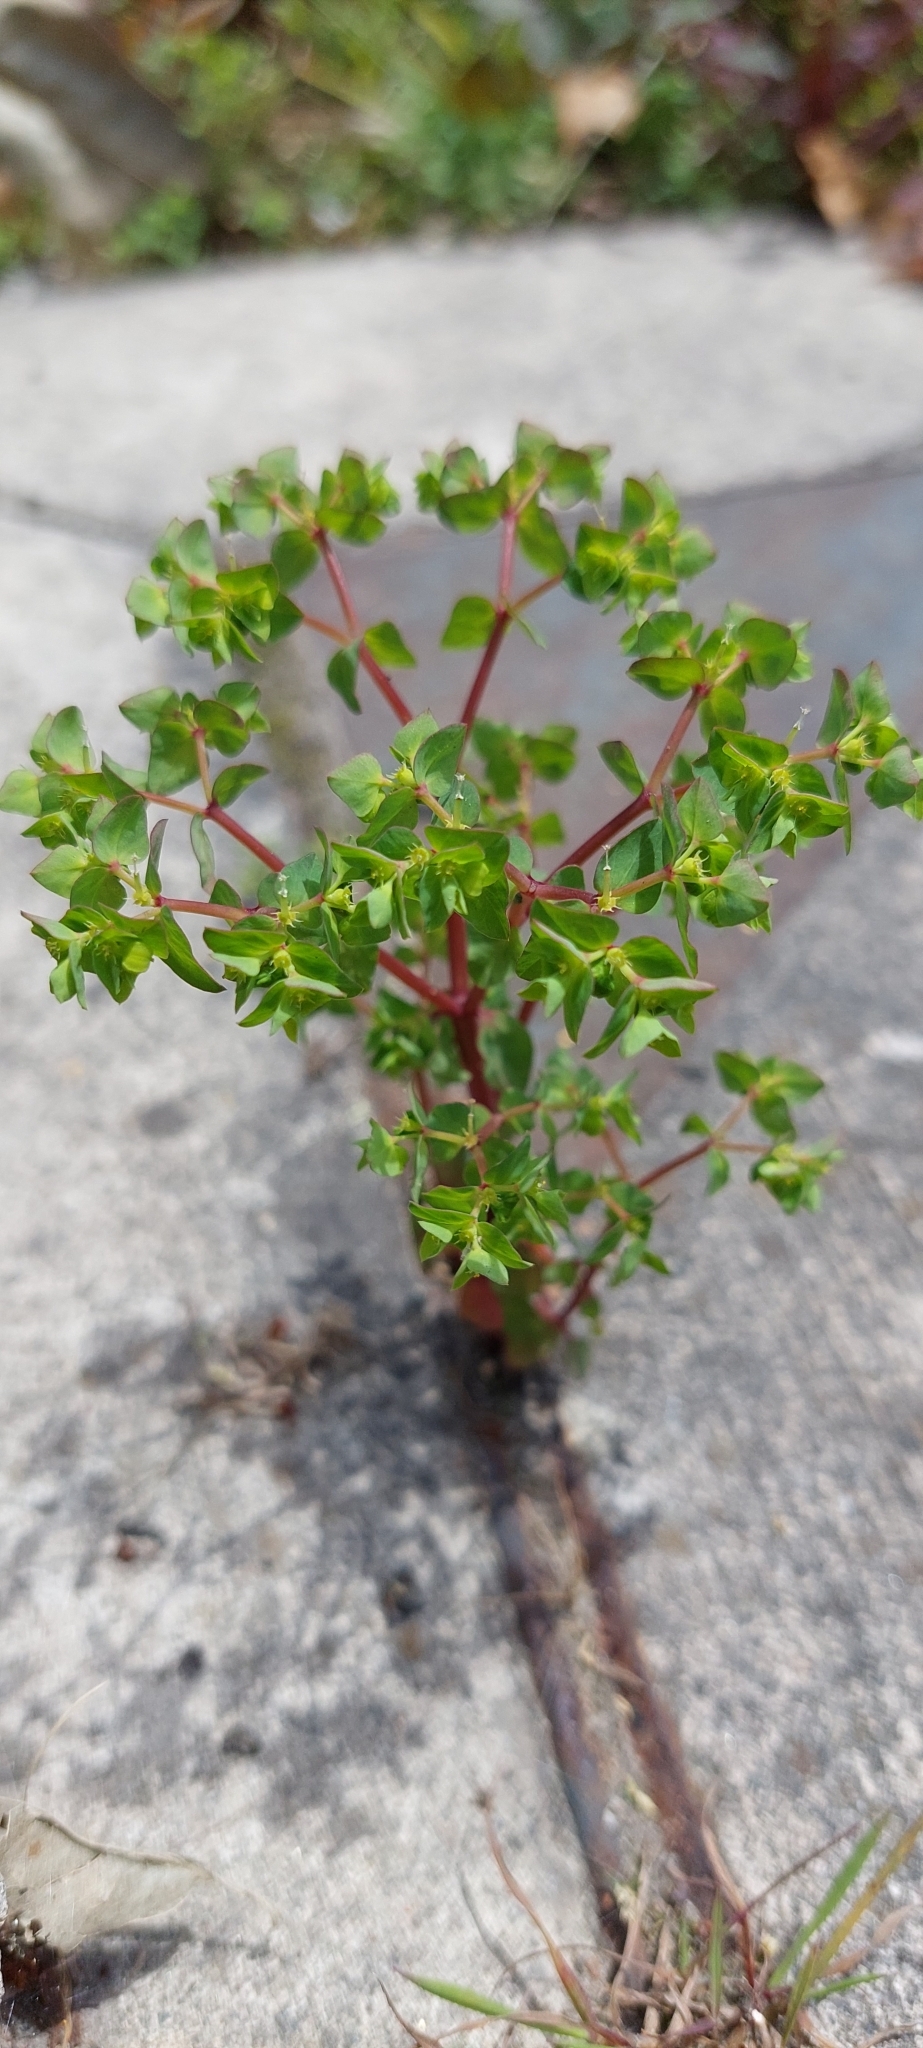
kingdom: Plantae
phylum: Tracheophyta
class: Magnoliopsida
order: Malpighiales
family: Euphorbiaceae
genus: Euphorbia
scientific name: Euphorbia peplus
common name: Petty spurge
